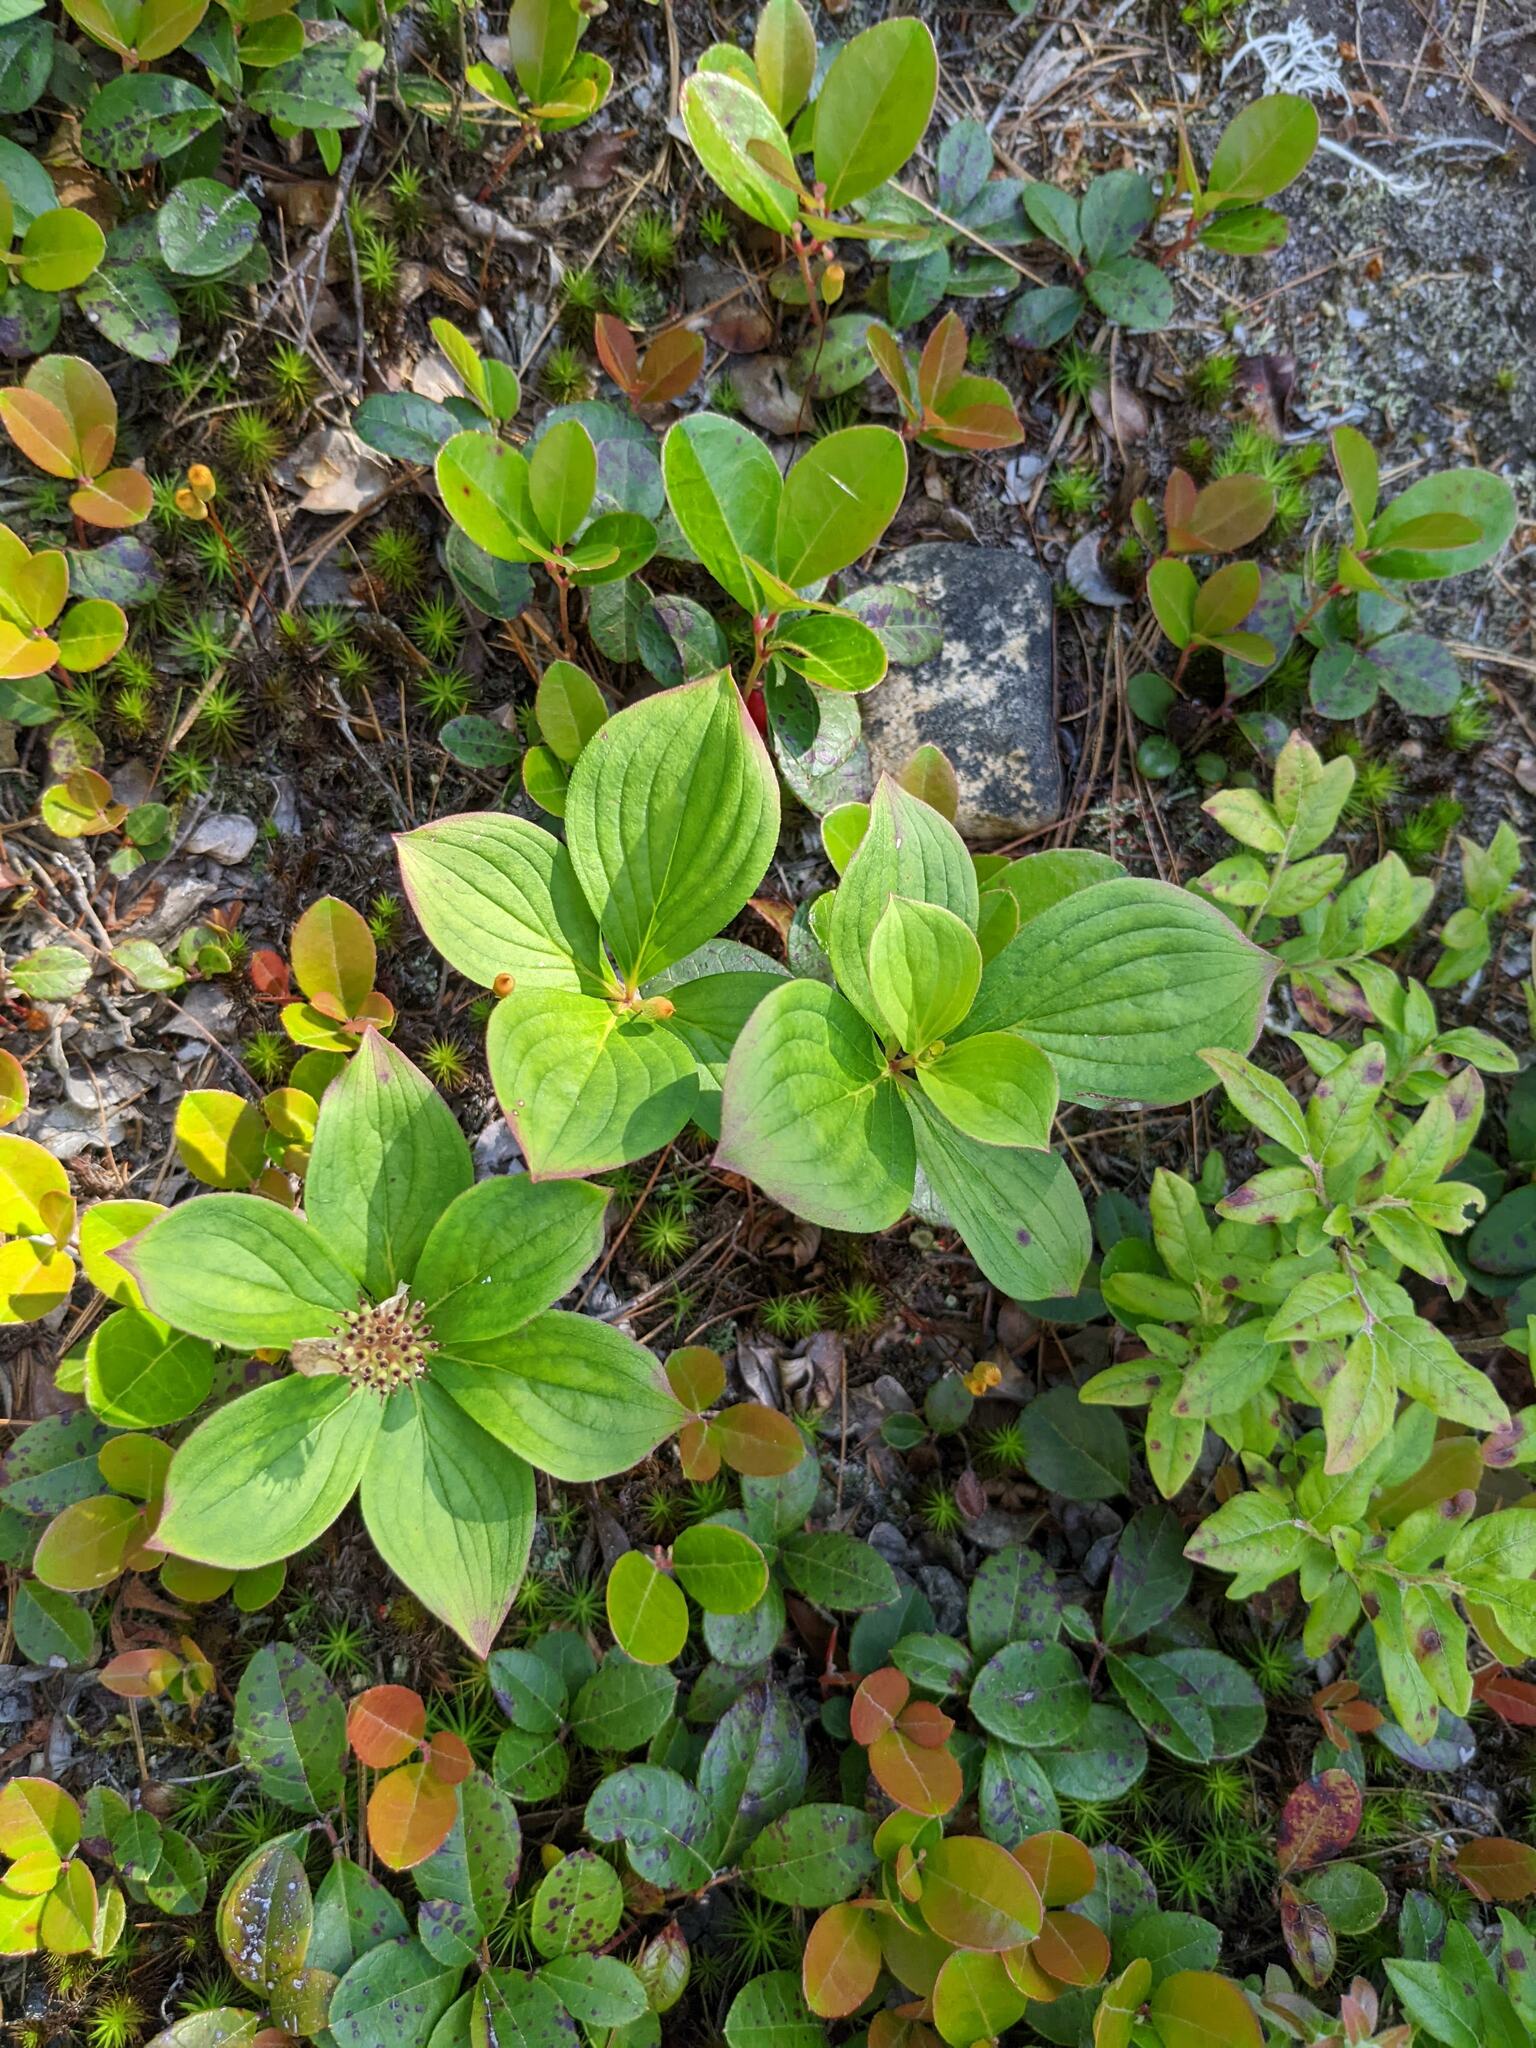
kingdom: Plantae
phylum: Tracheophyta
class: Magnoliopsida
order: Cornales
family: Cornaceae
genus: Cornus
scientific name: Cornus canadensis
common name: Creeping dogwood
